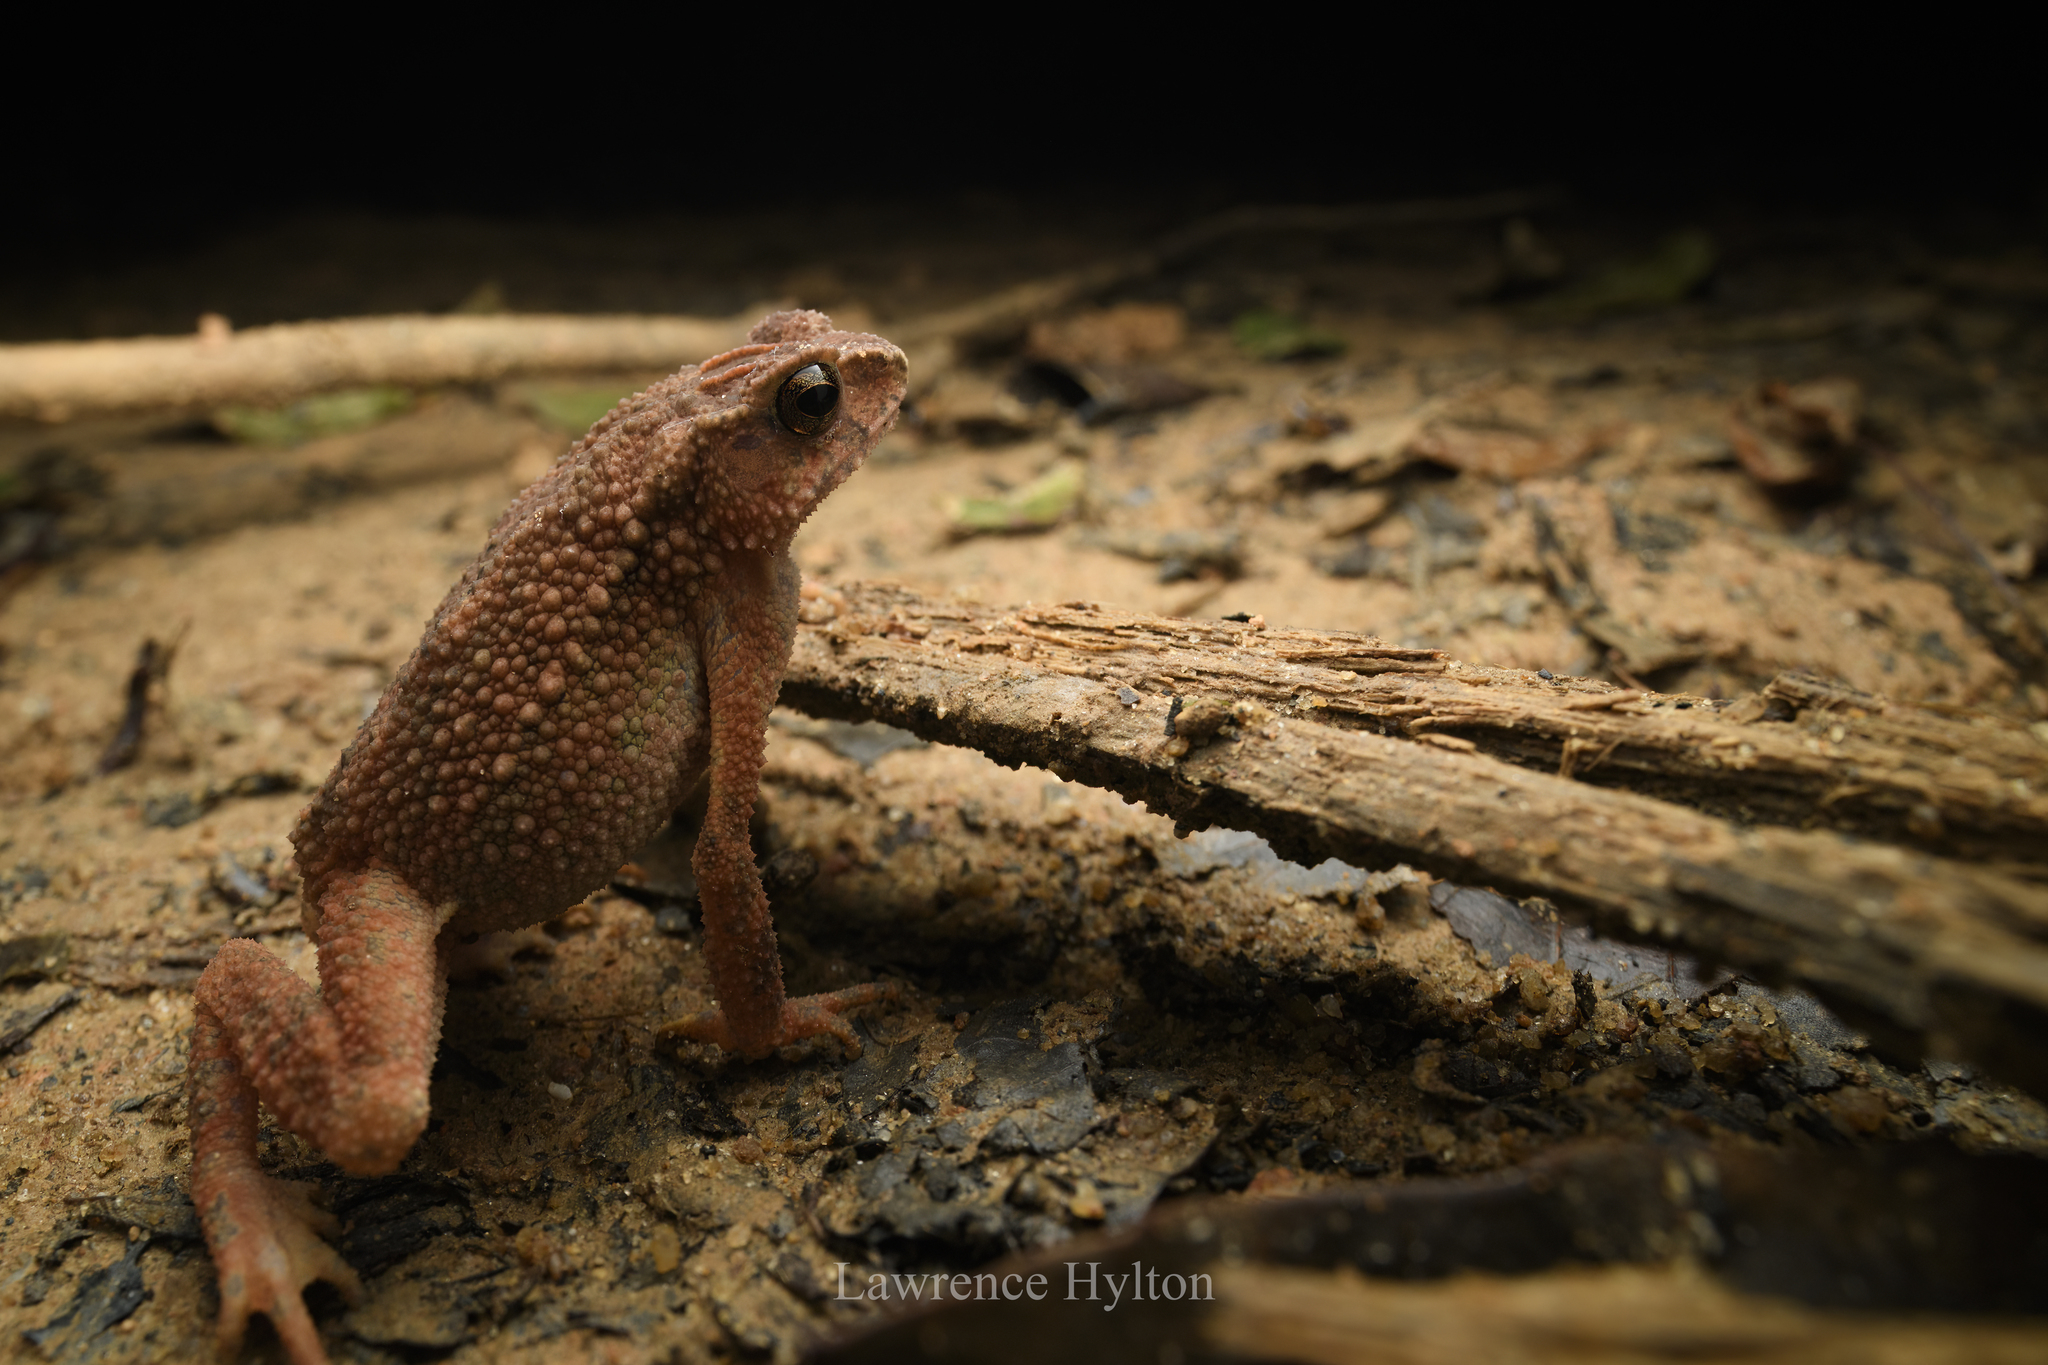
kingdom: Animalia
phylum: Chordata
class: Amphibia
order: Anura
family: Bufonidae
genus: Ingerophrynus
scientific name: Ingerophrynus parvus
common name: Dwarf lesser stream toad
